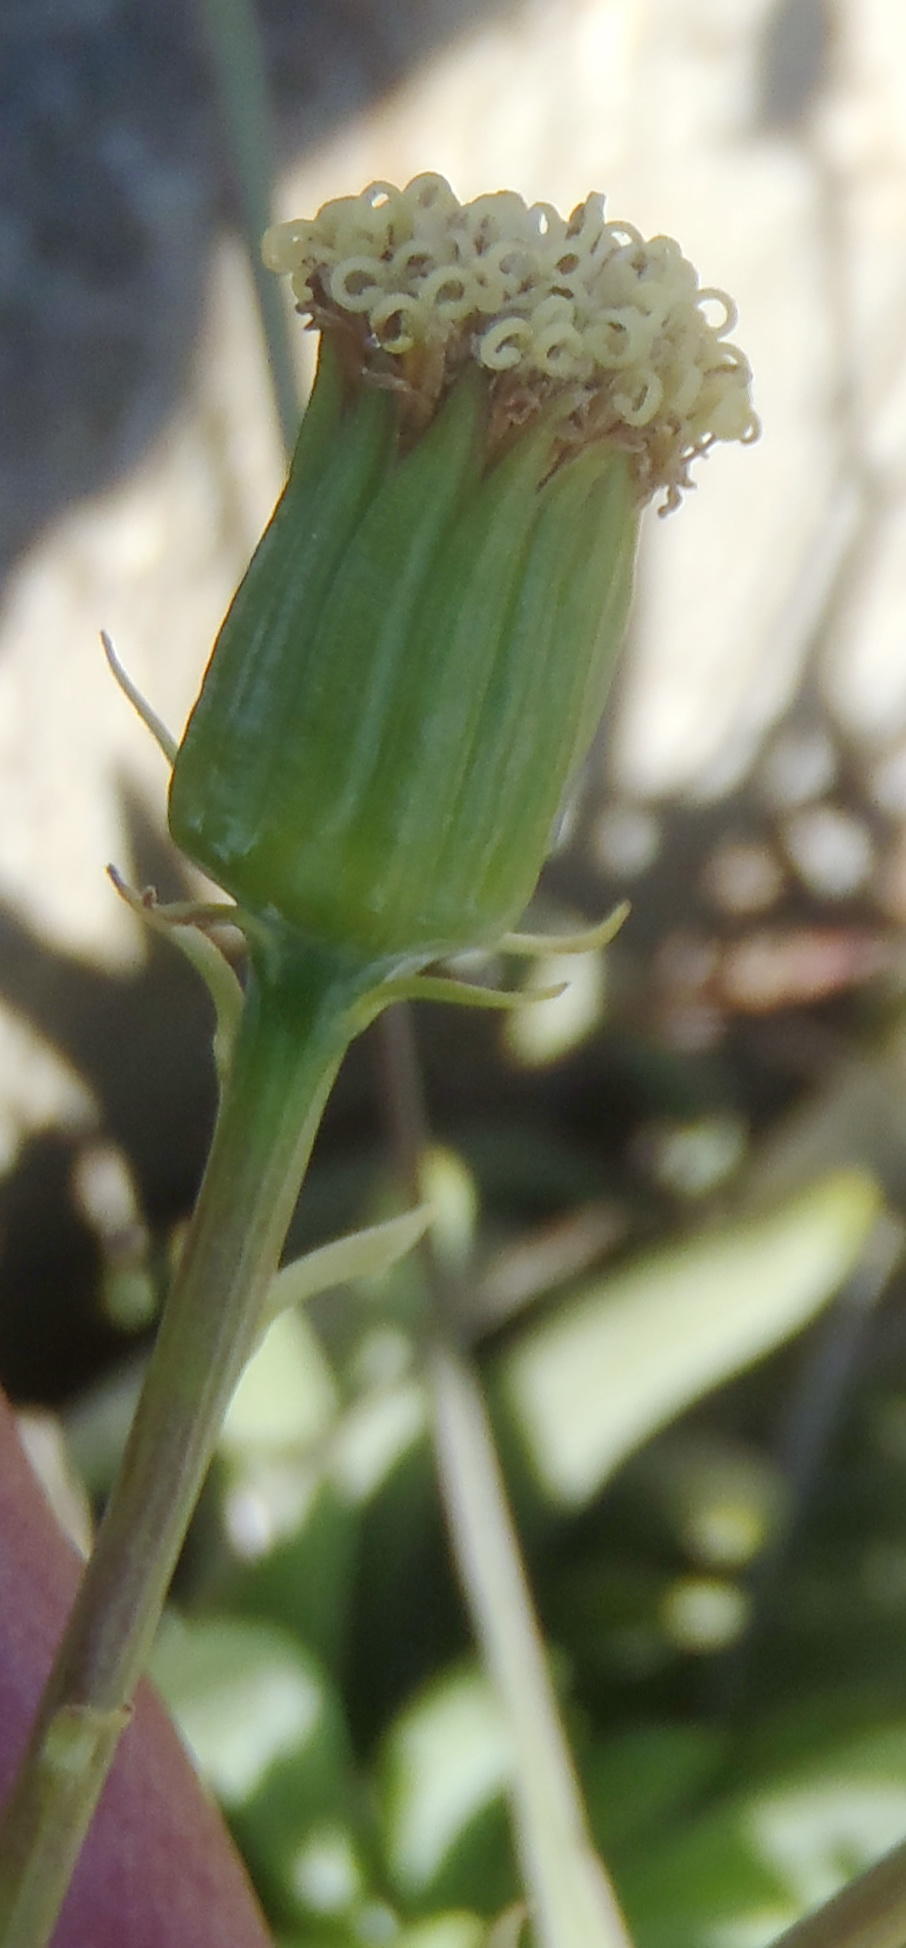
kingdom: Plantae
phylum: Tracheophyta
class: Magnoliopsida
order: Asterales
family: Asteraceae
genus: Curio
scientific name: Curio talinoides
